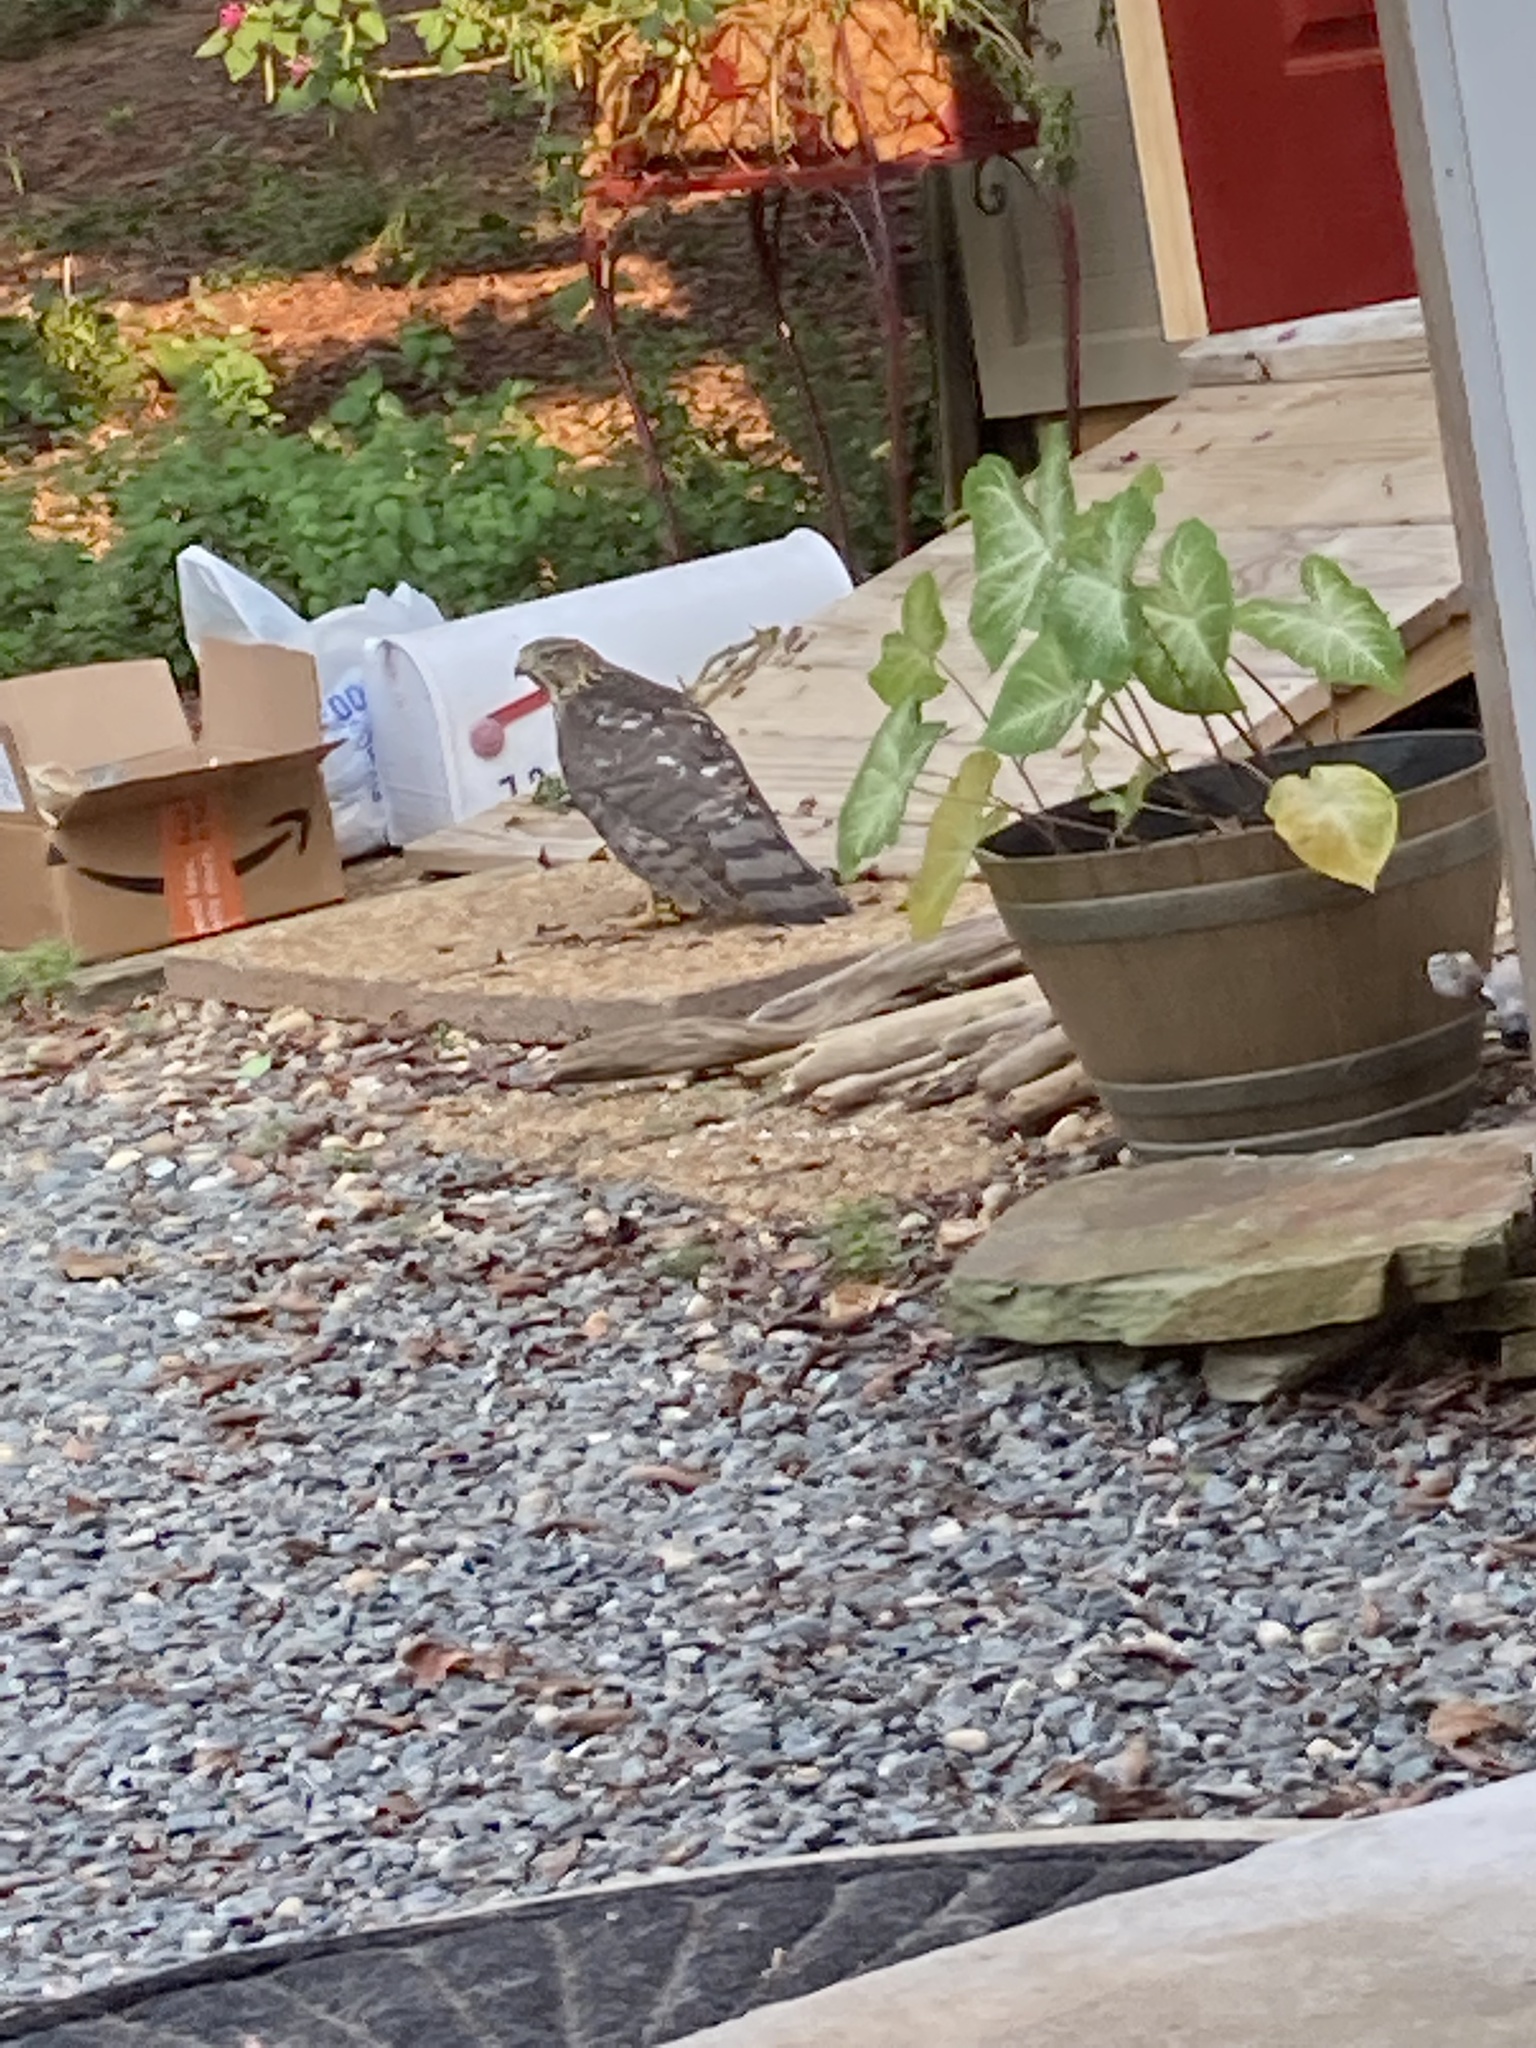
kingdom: Animalia
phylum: Chordata
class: Aves
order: Accipitriformes
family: Accipitridae
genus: Accipiter
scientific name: Accipiter cooperii
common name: Cooper's hawk
